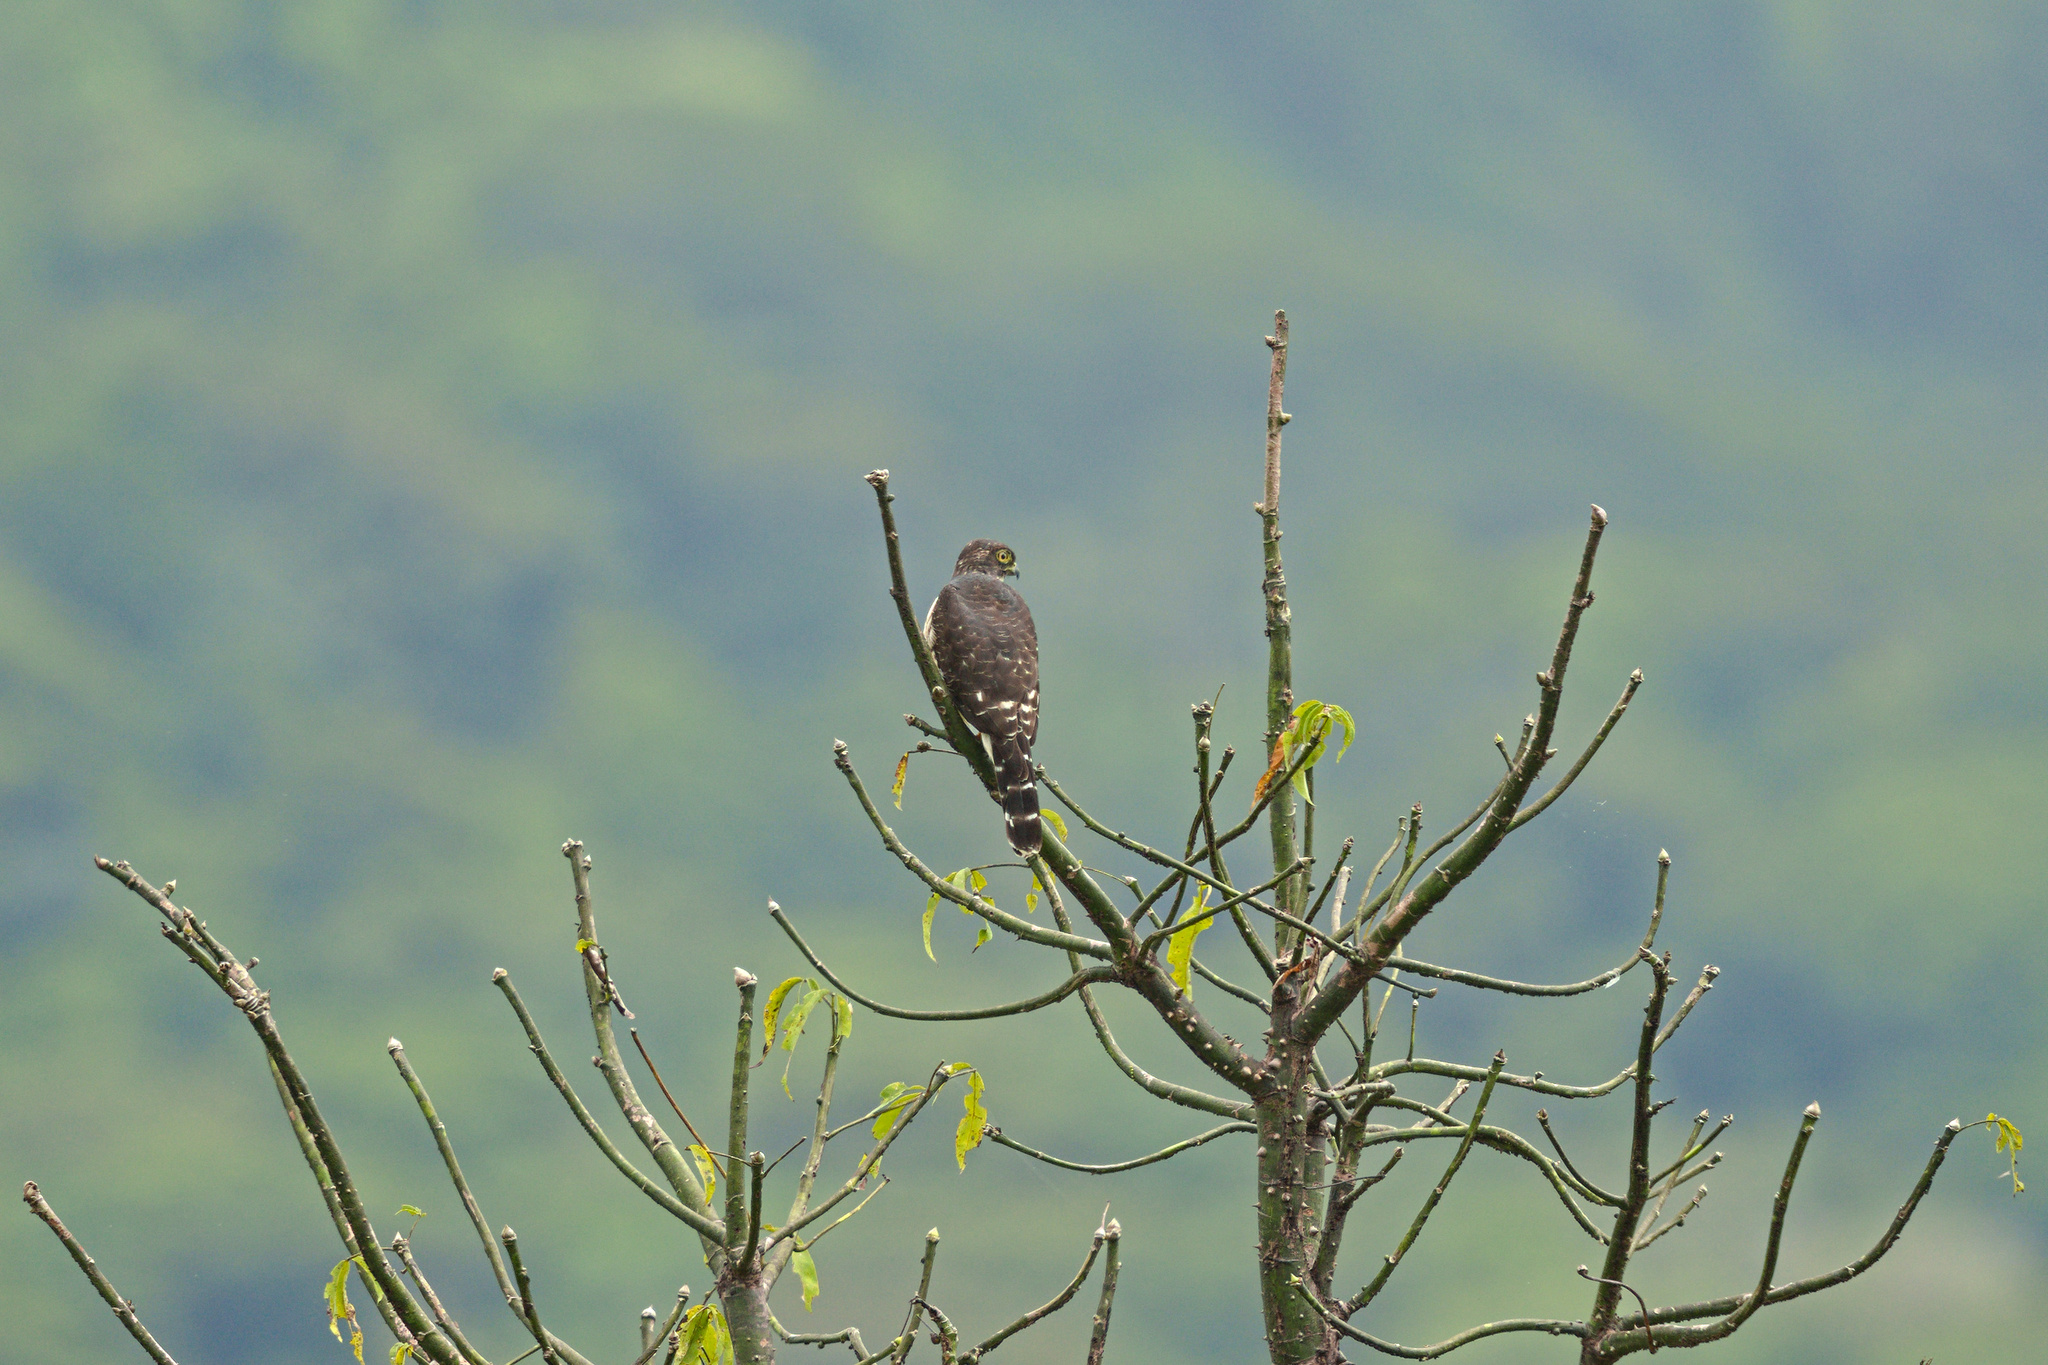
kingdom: Animalia
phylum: Chordata
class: Aves
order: Accipitriformes
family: Accipitridae
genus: Harpagus
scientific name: Harpagus bidentatus
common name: Double-toothed kite
